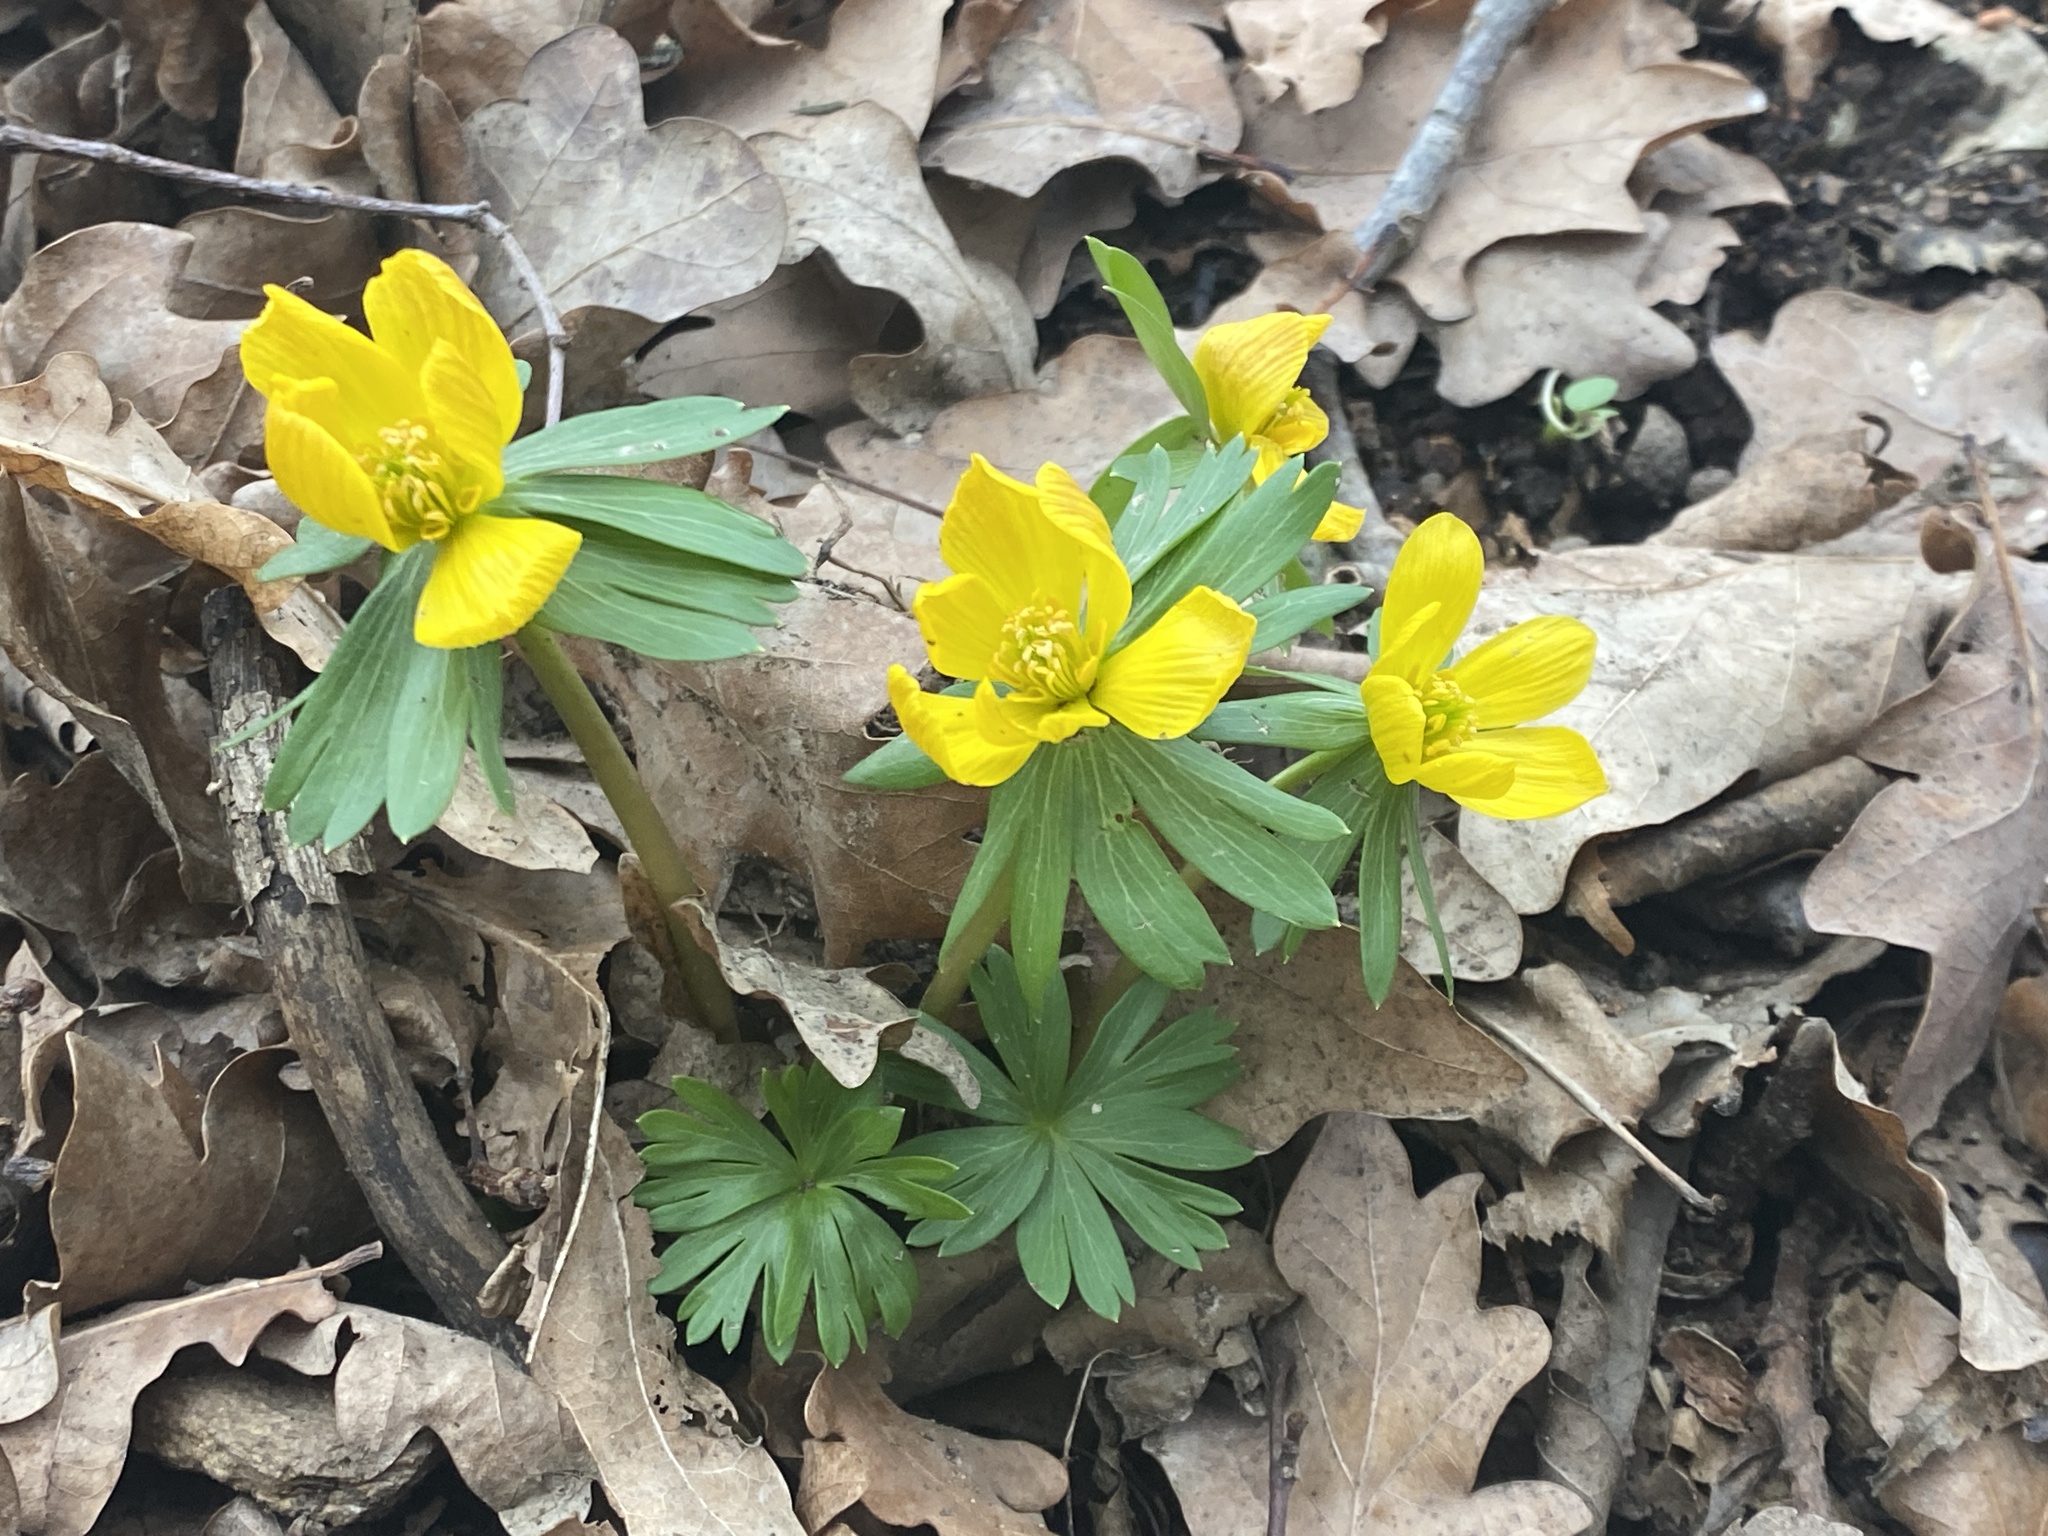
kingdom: Plantae
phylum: Tracheophyta
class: Magnoliopsida
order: Ranunculales
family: Ranunculaceae
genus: Eranthis
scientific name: Eranthis hyemalis
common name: Winter aconite
